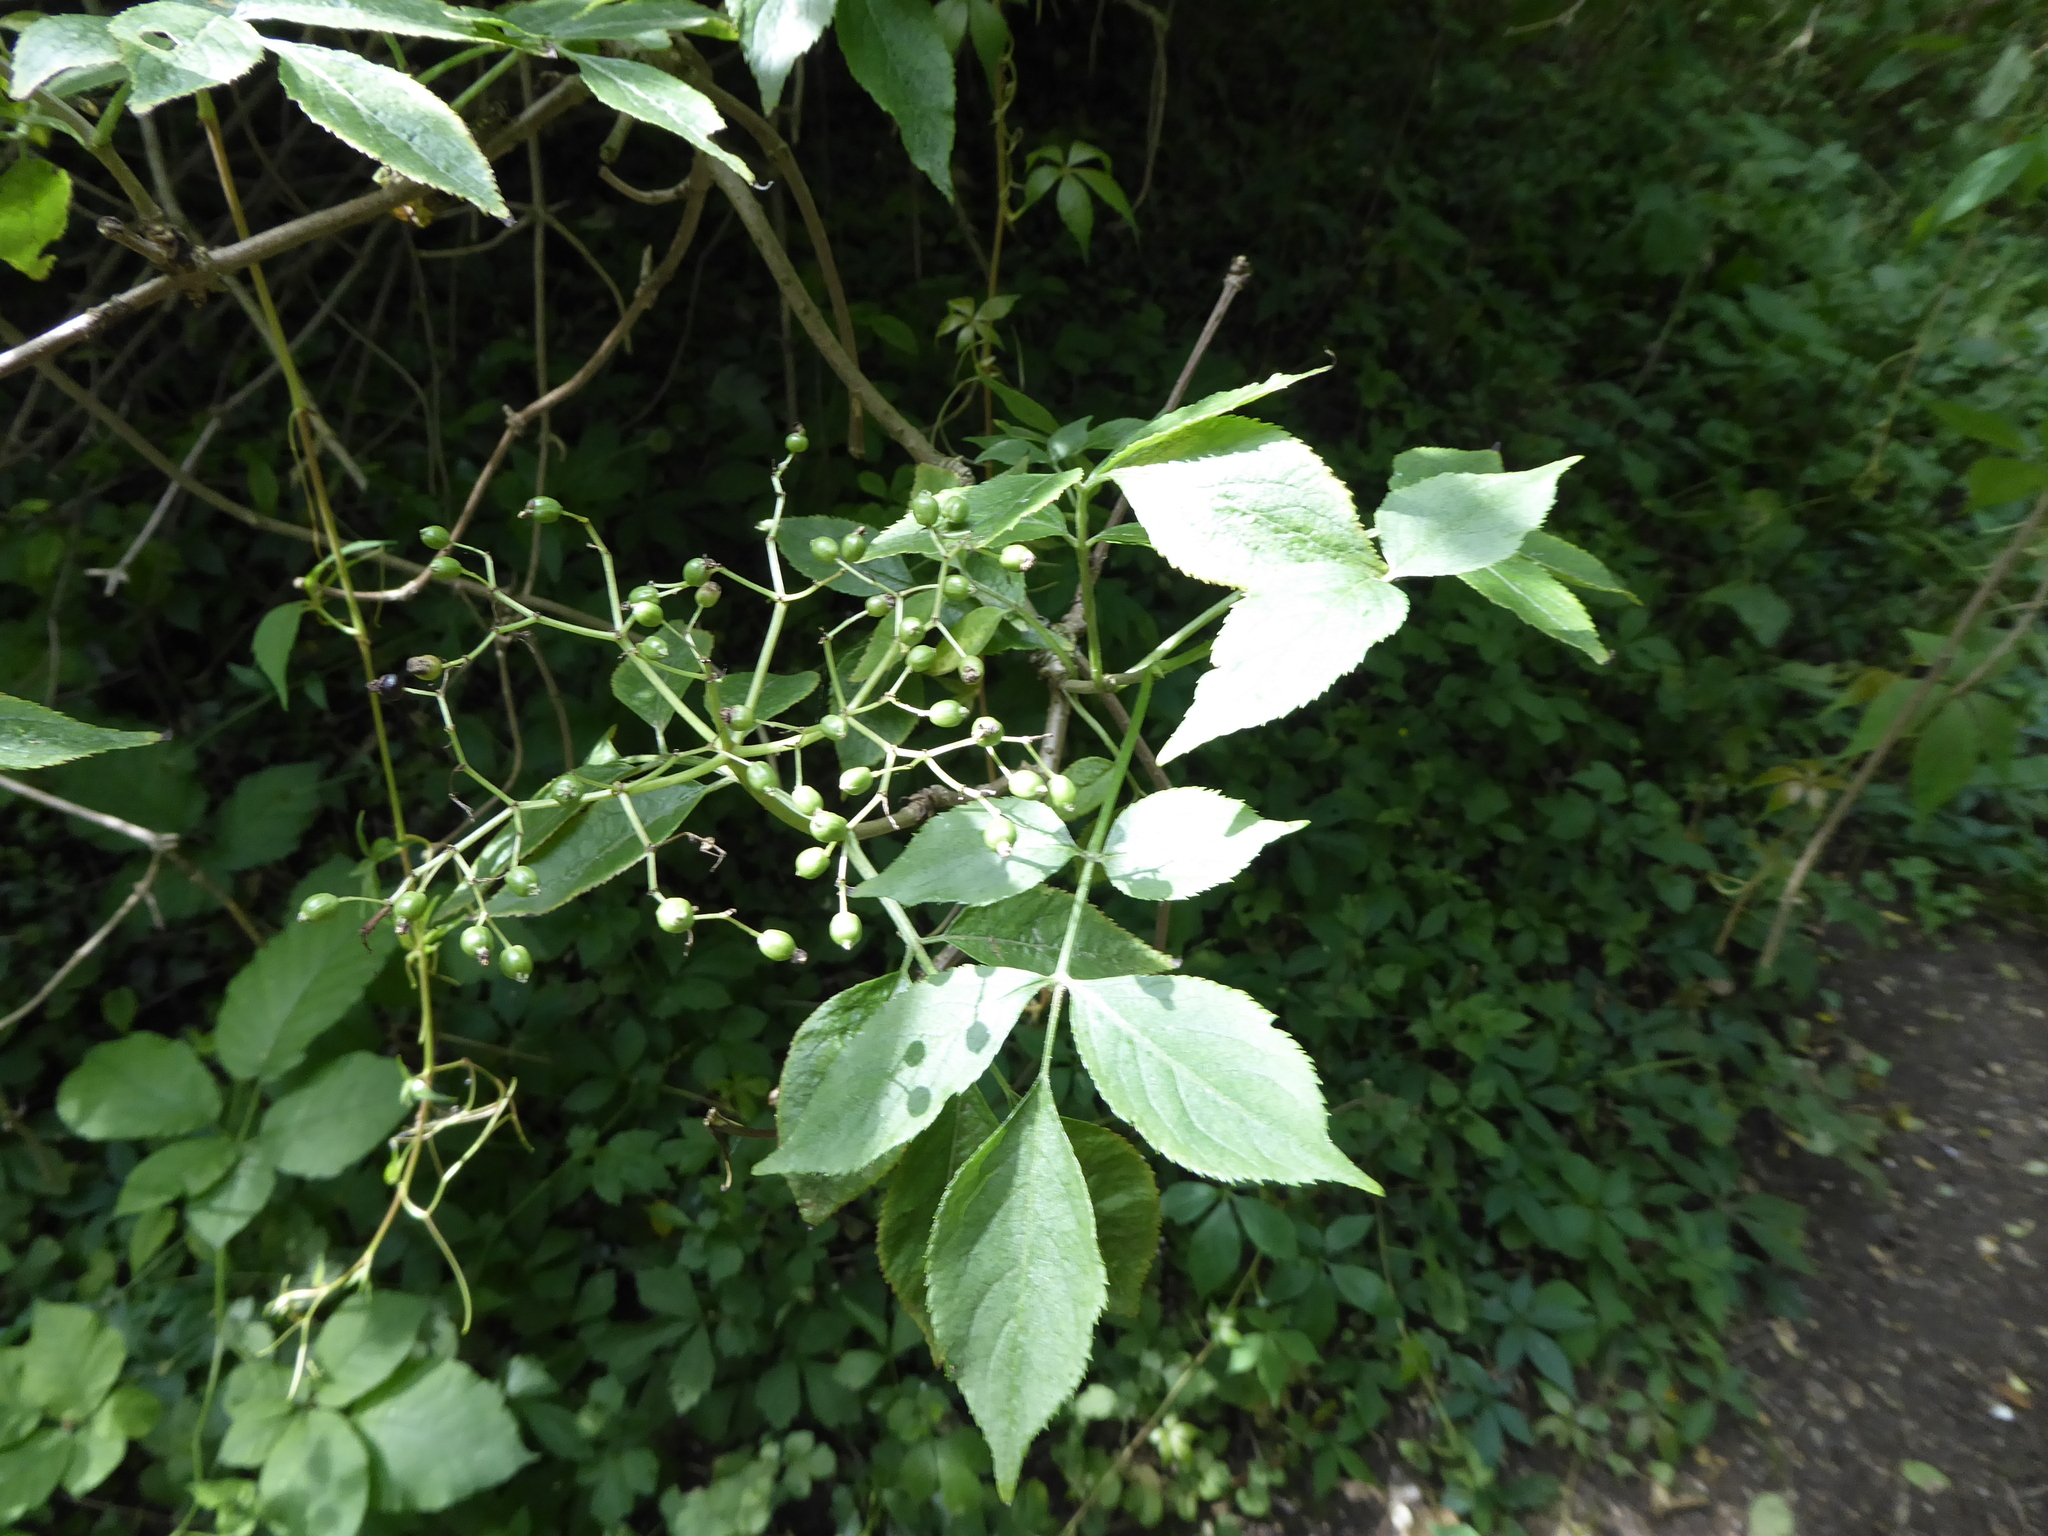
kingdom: Plantae
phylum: Tracheophyta
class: Magnoliopsida
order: Dipsacales
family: Viburnaceae
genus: Sambucus
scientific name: Sambucus nigra
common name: Elder
